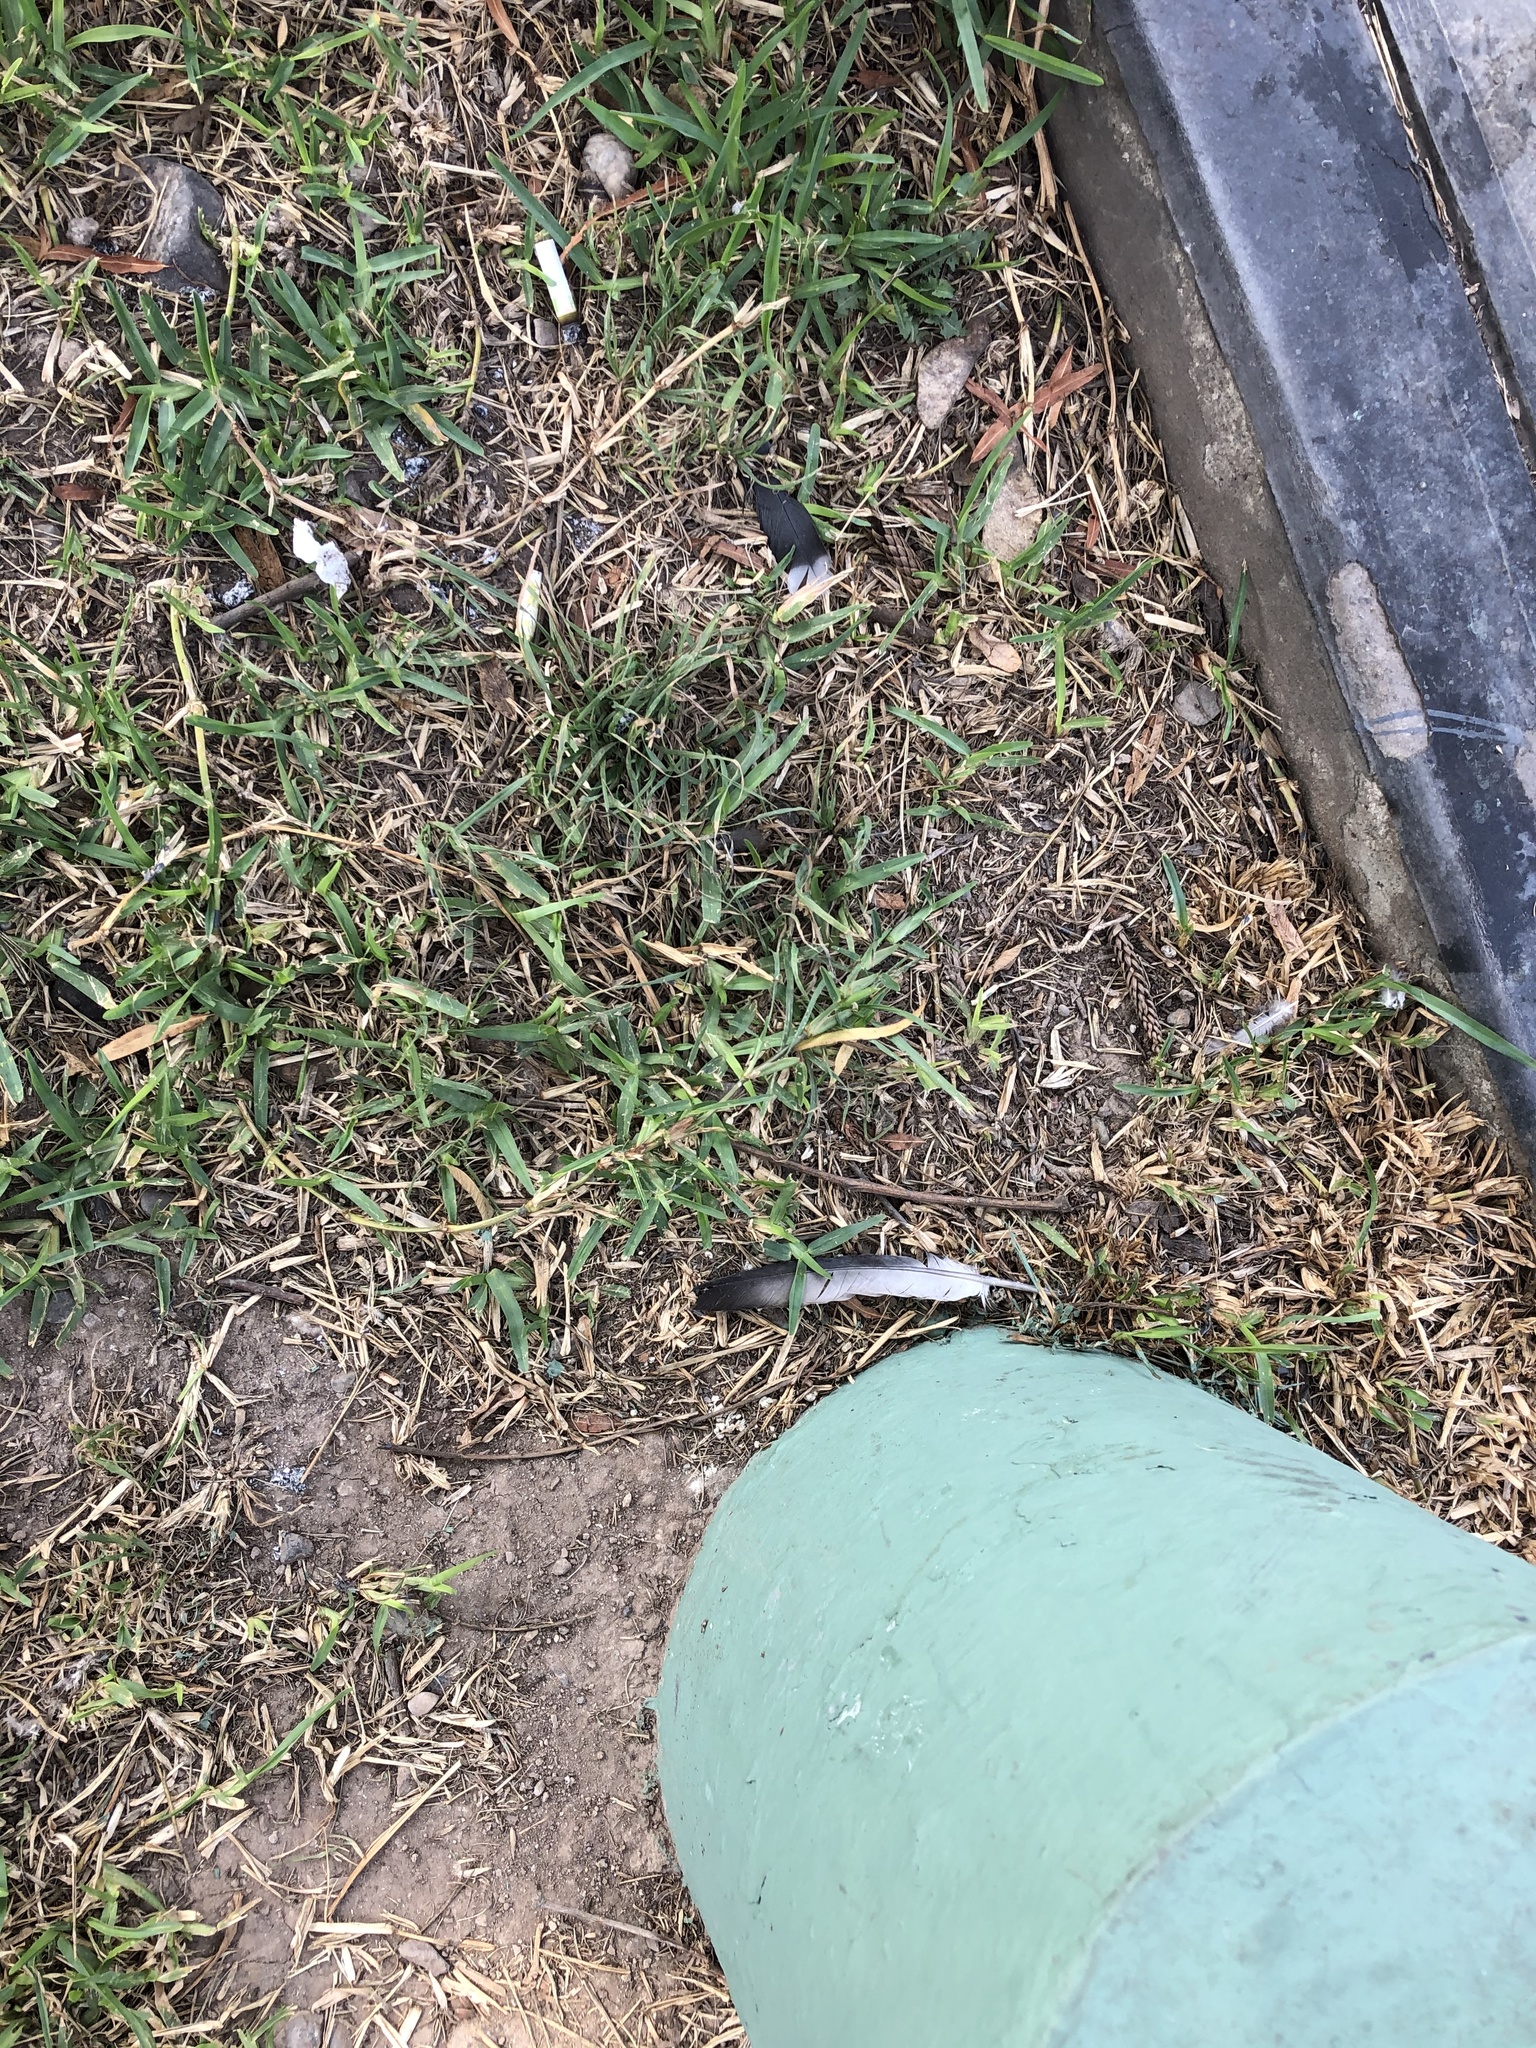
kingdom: Animalia
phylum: Chordata
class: Aves
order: Columbiformes
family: Columbidae
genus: Columba
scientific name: Columba livia
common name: Rock pigeon
